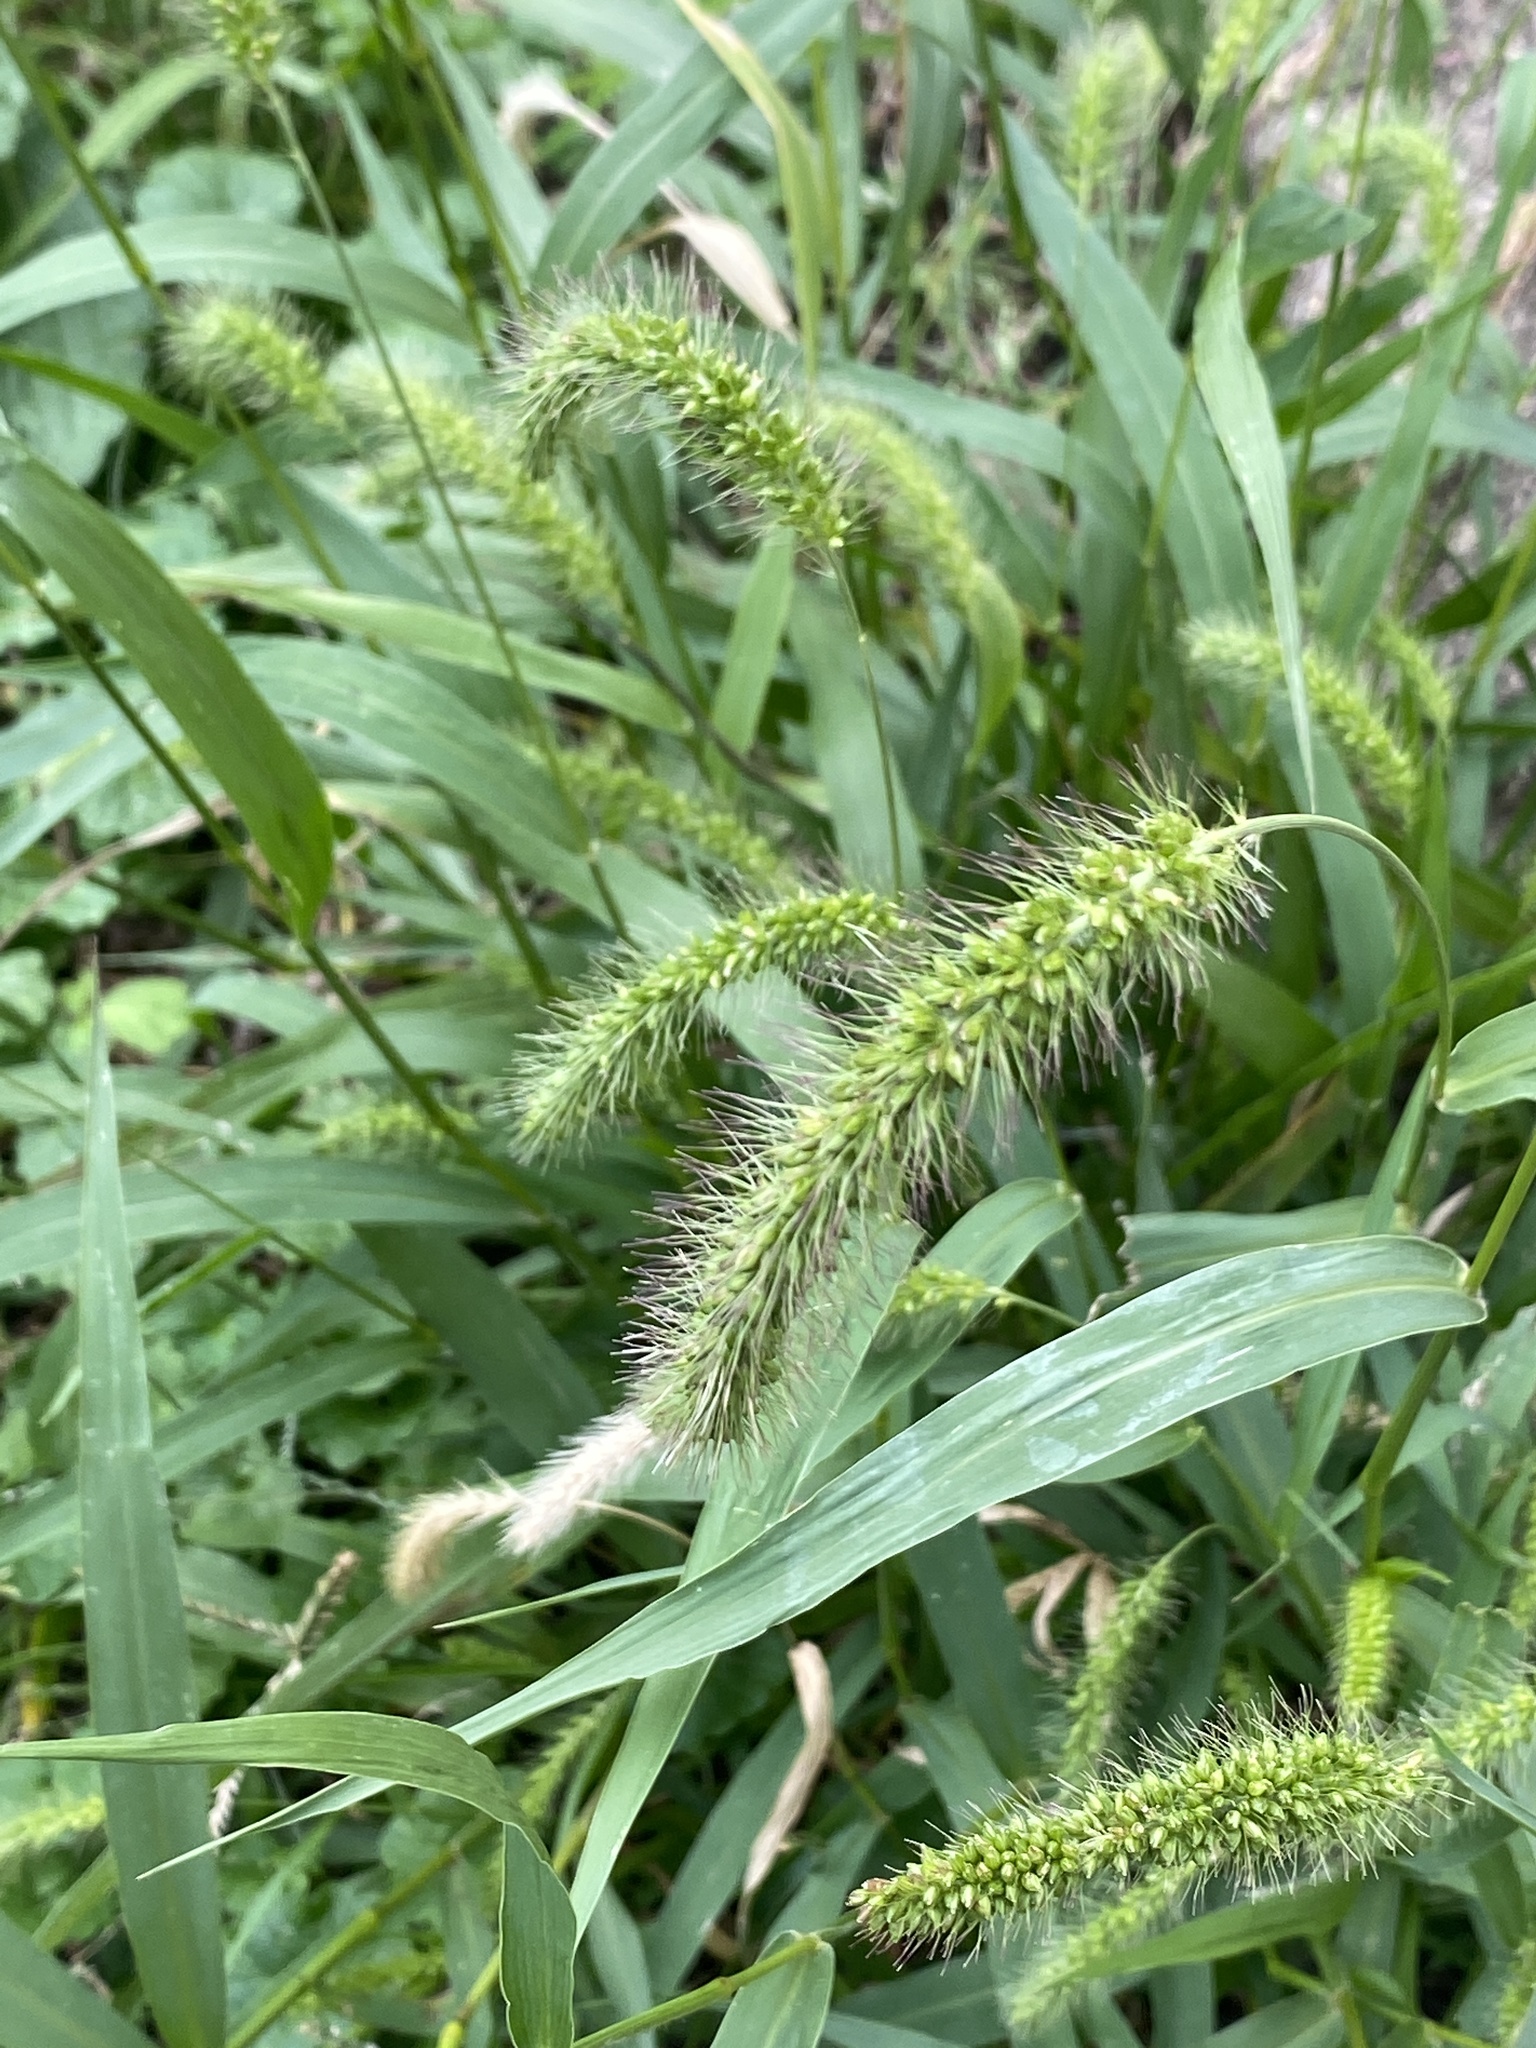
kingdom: Plantae
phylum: Tracheophyta
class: Liliopsida
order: Poales
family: Poaceae
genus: Setaria
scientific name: Setaria faberi
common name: Nodding bristle-grass
